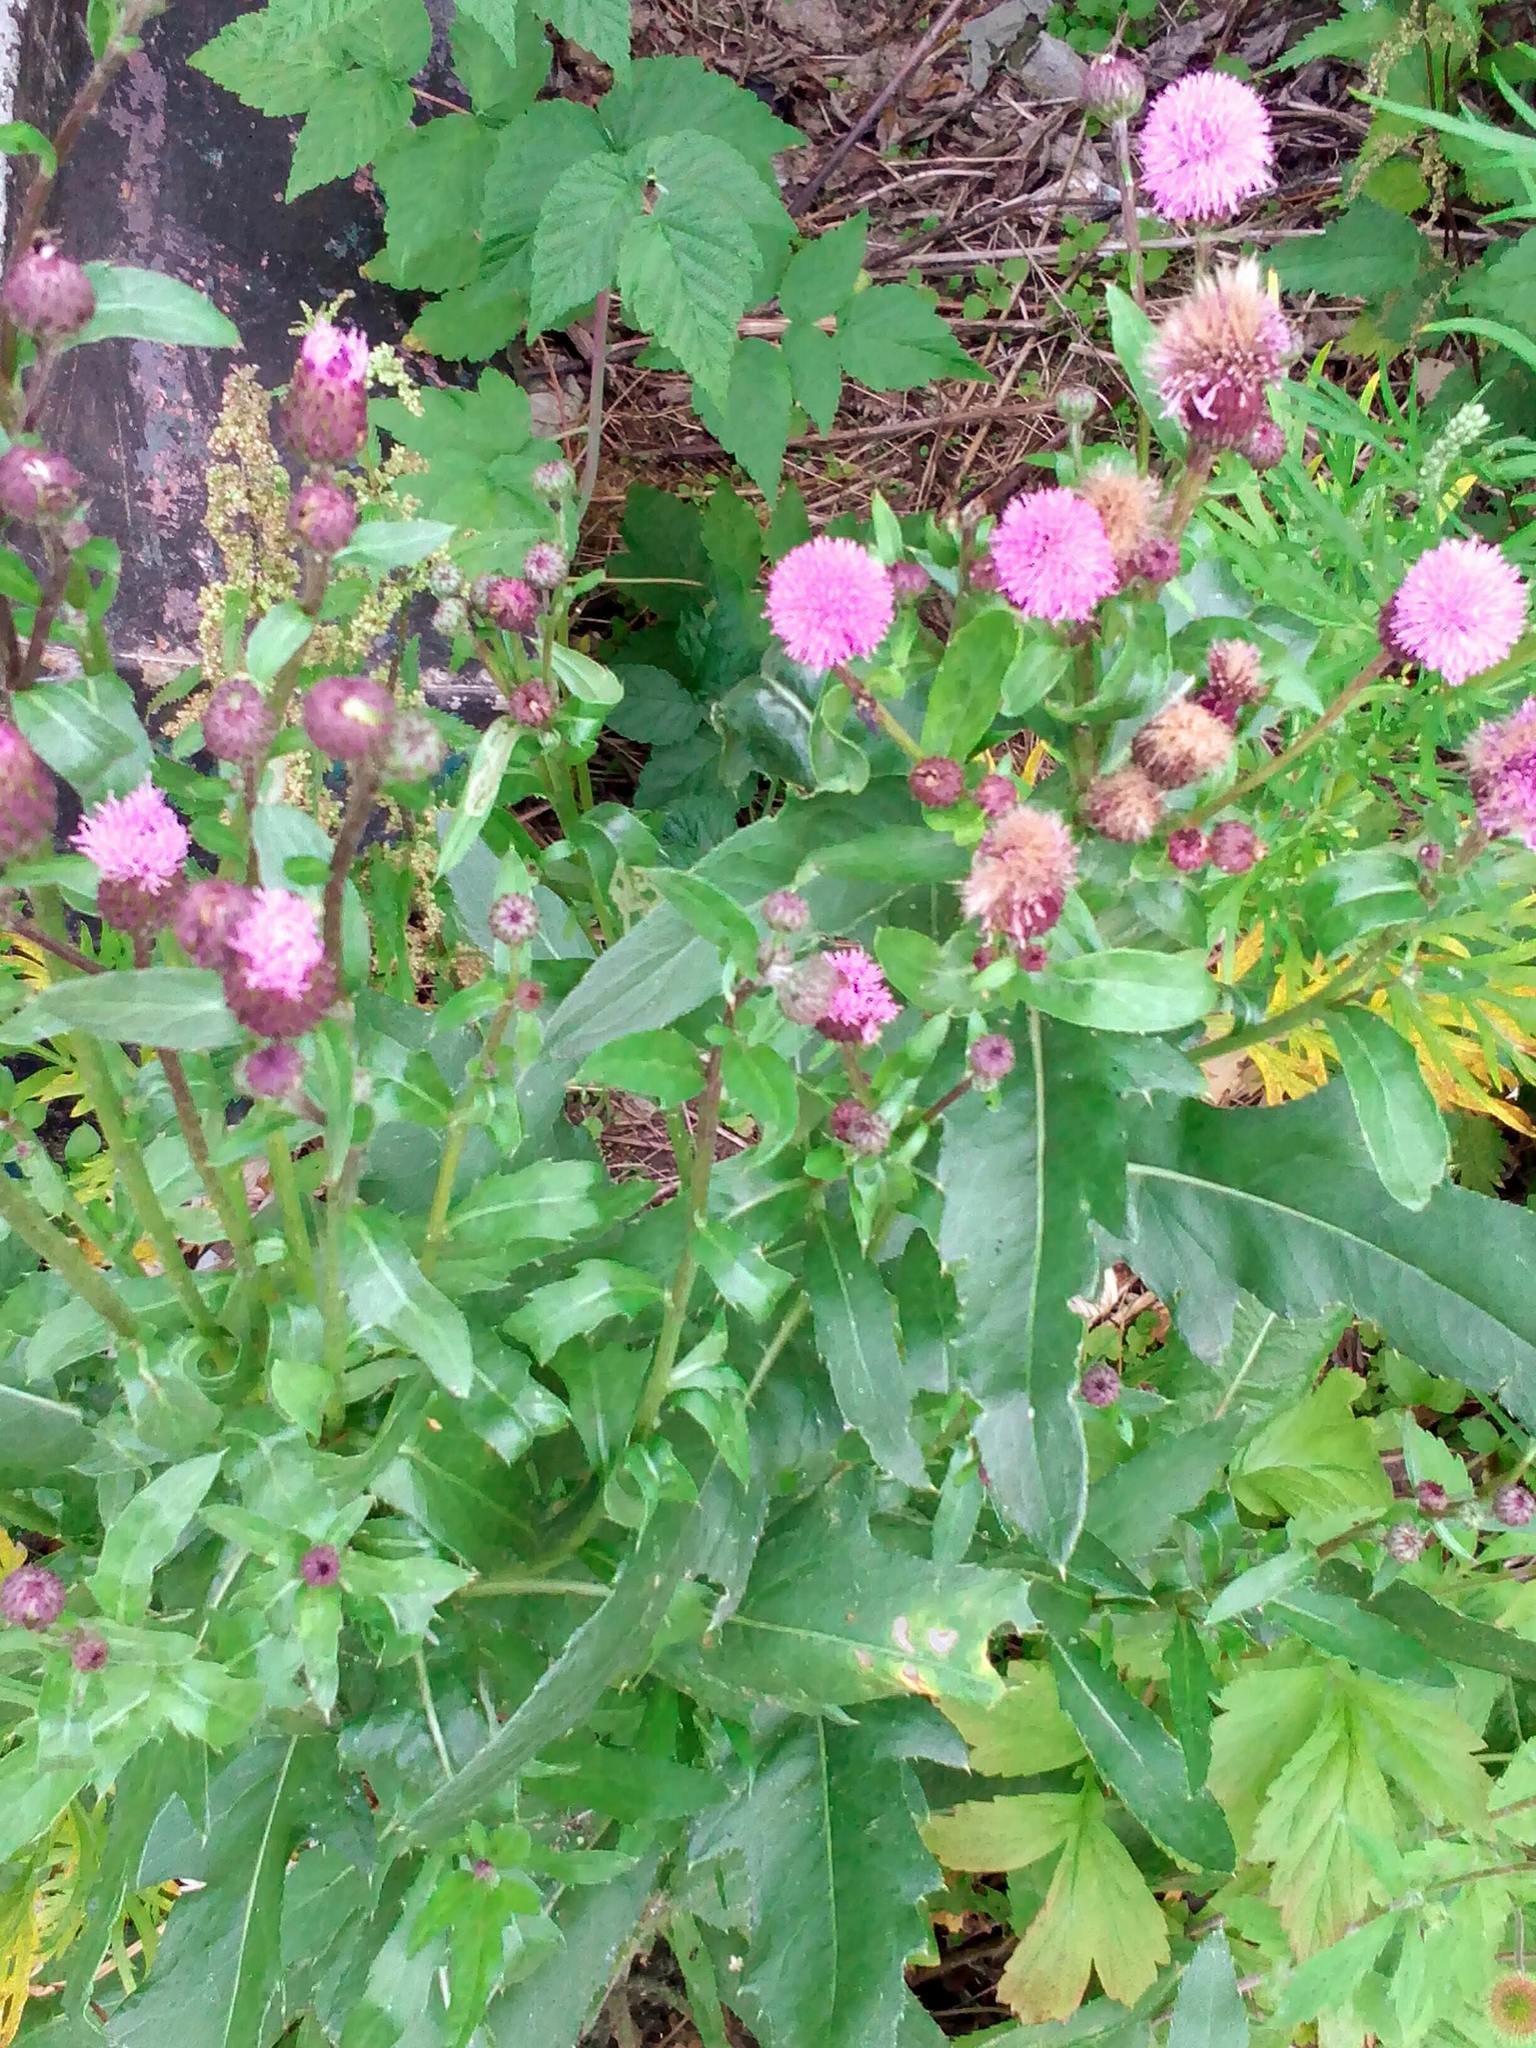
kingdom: Plantae
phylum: Tracheophyta
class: Magnoliopsida
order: Asterales
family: Asteraceae
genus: Cirsium
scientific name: Cirsium arvense
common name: Creeping thistle
